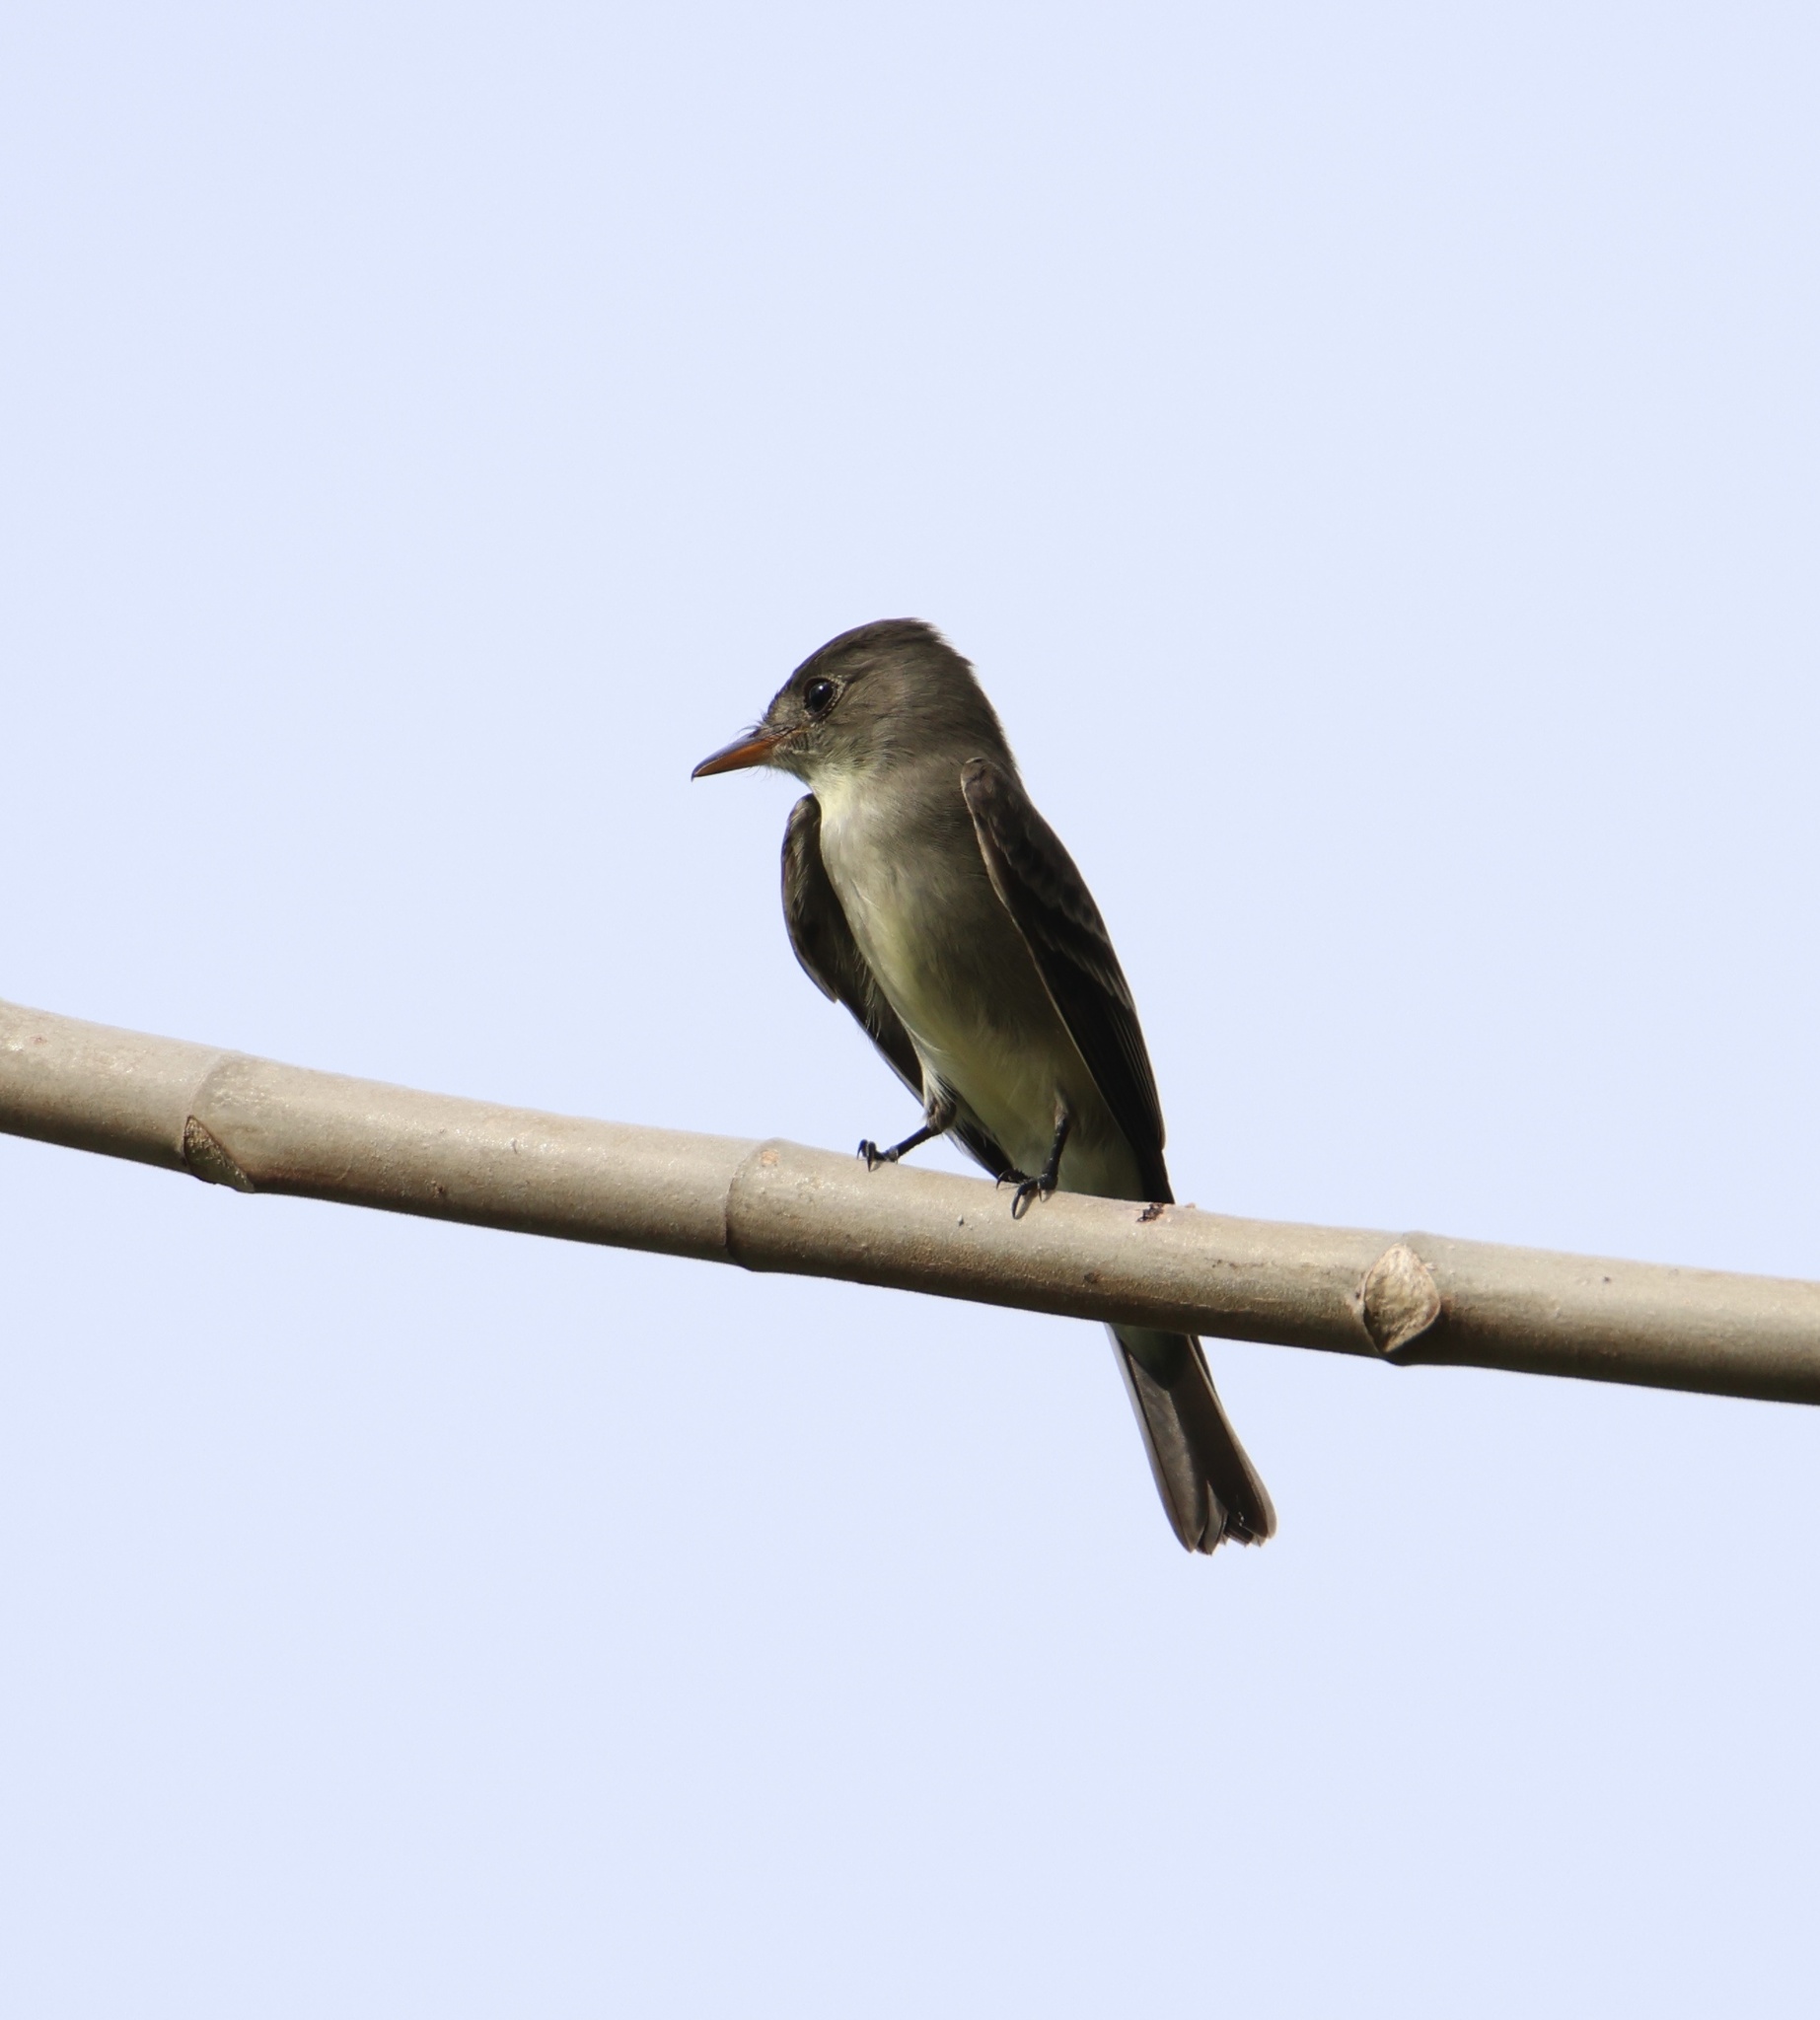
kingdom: Animalia
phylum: Chordata
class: Aves
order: Passeriformes
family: Tyrannidae
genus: Contopus
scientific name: Contopus cinereus
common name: Tropical pewee
